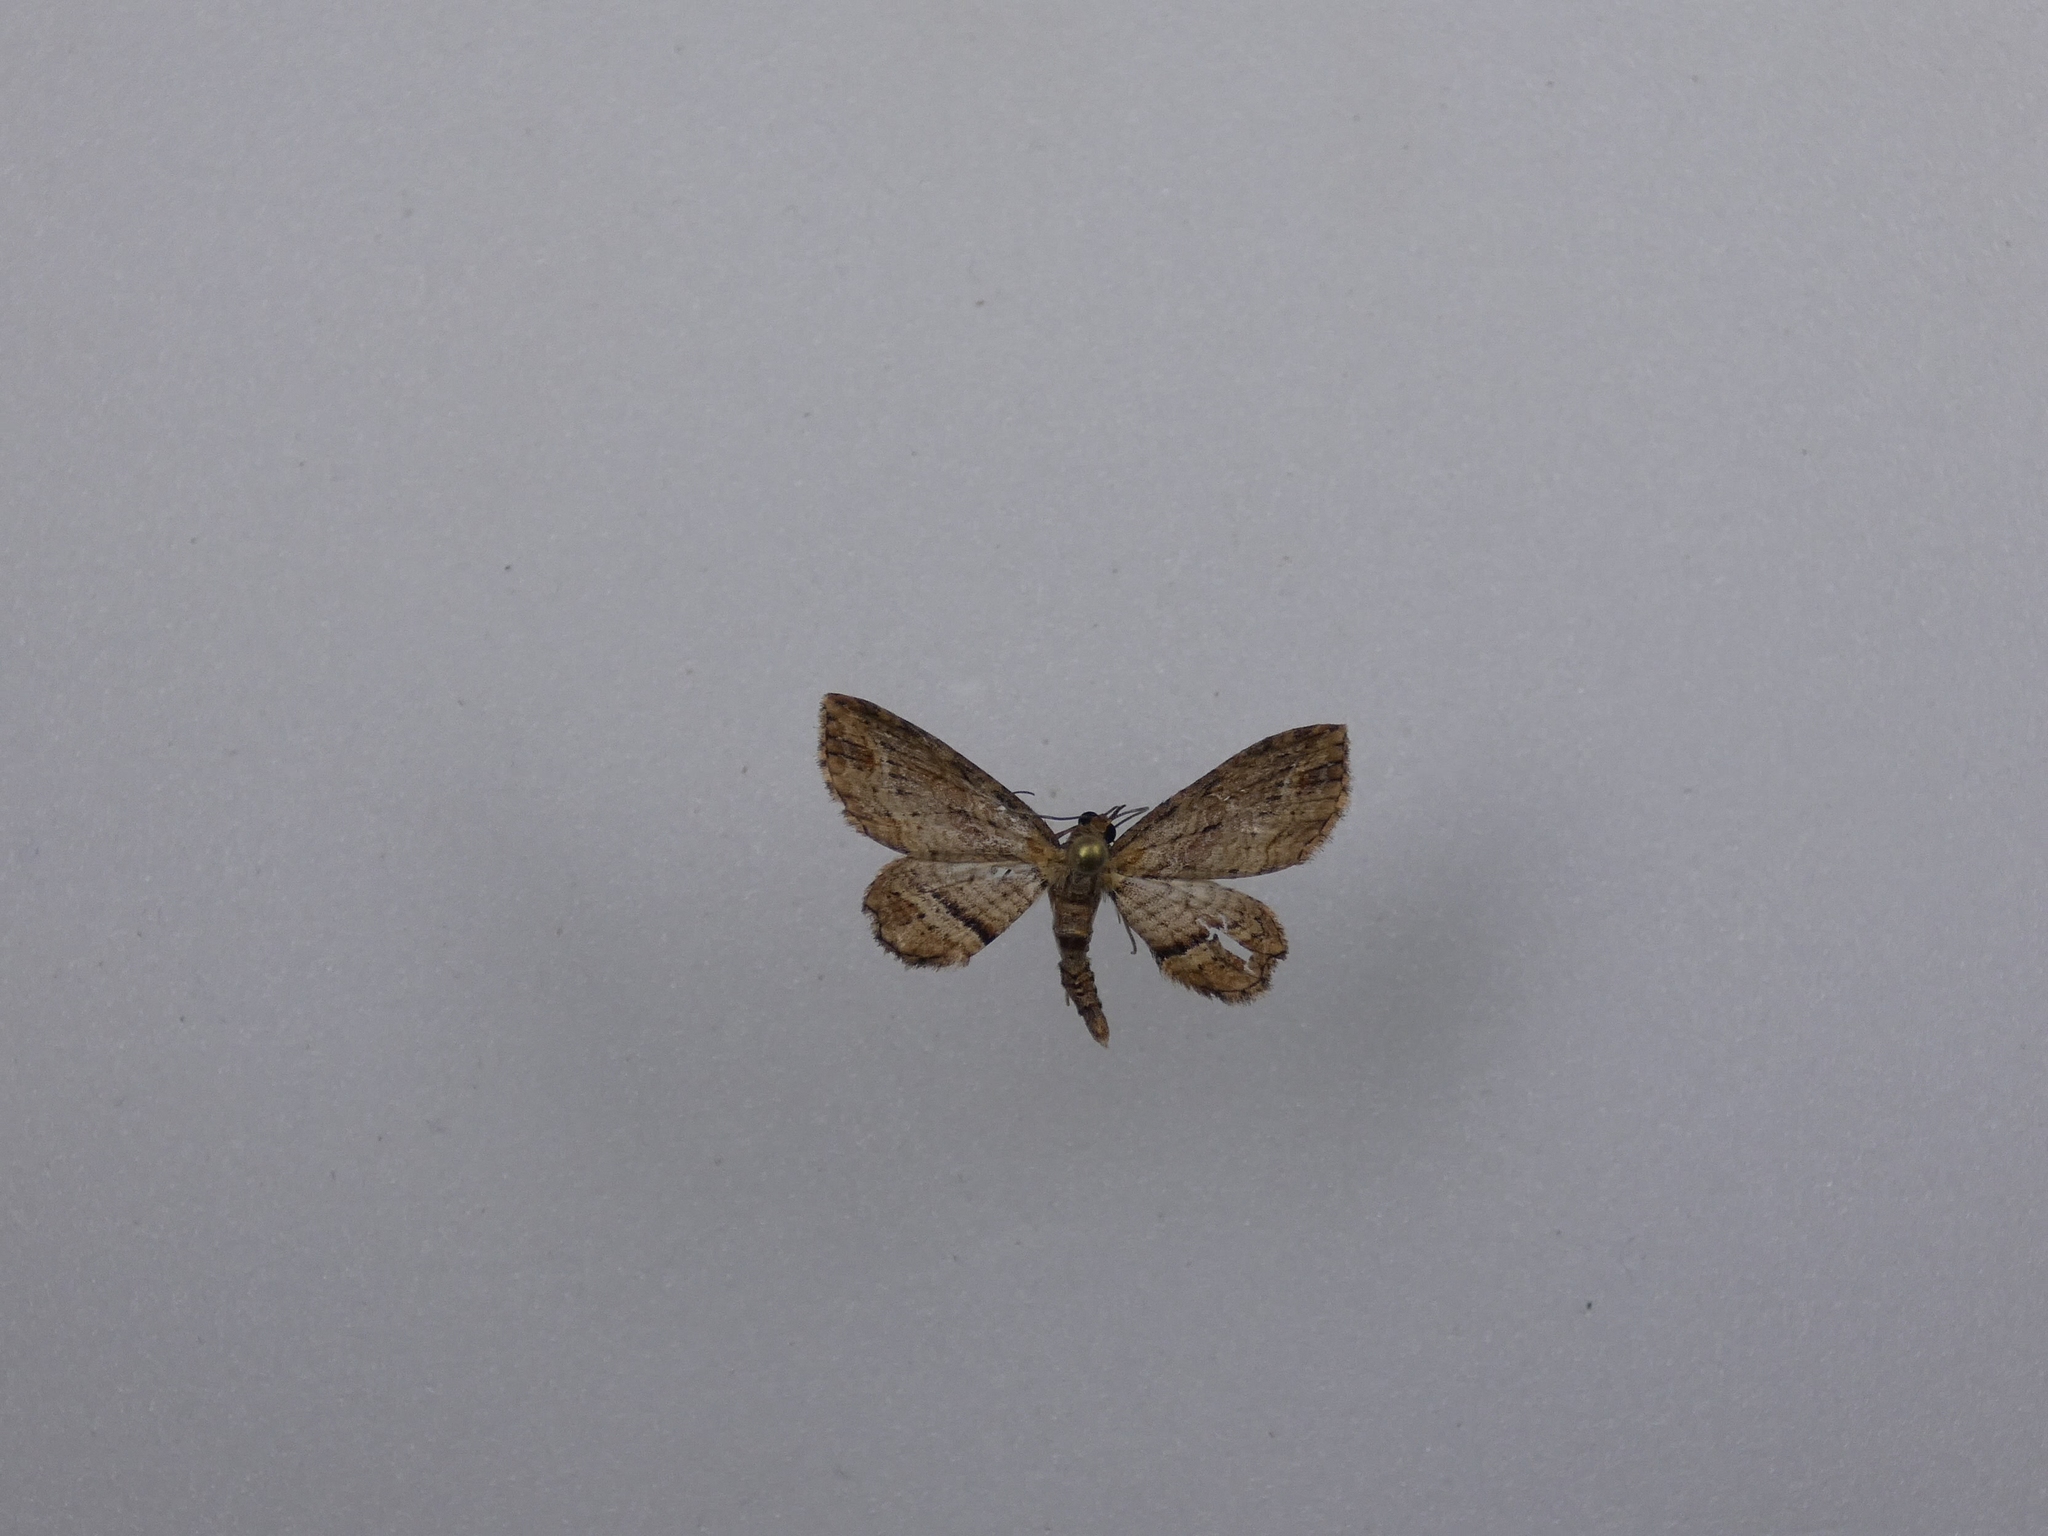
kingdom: Animalia
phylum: Arthropoda
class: Insecta
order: Lepidoptera
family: Geometridae
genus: Chloroclystis
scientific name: Chloroclystis filata
